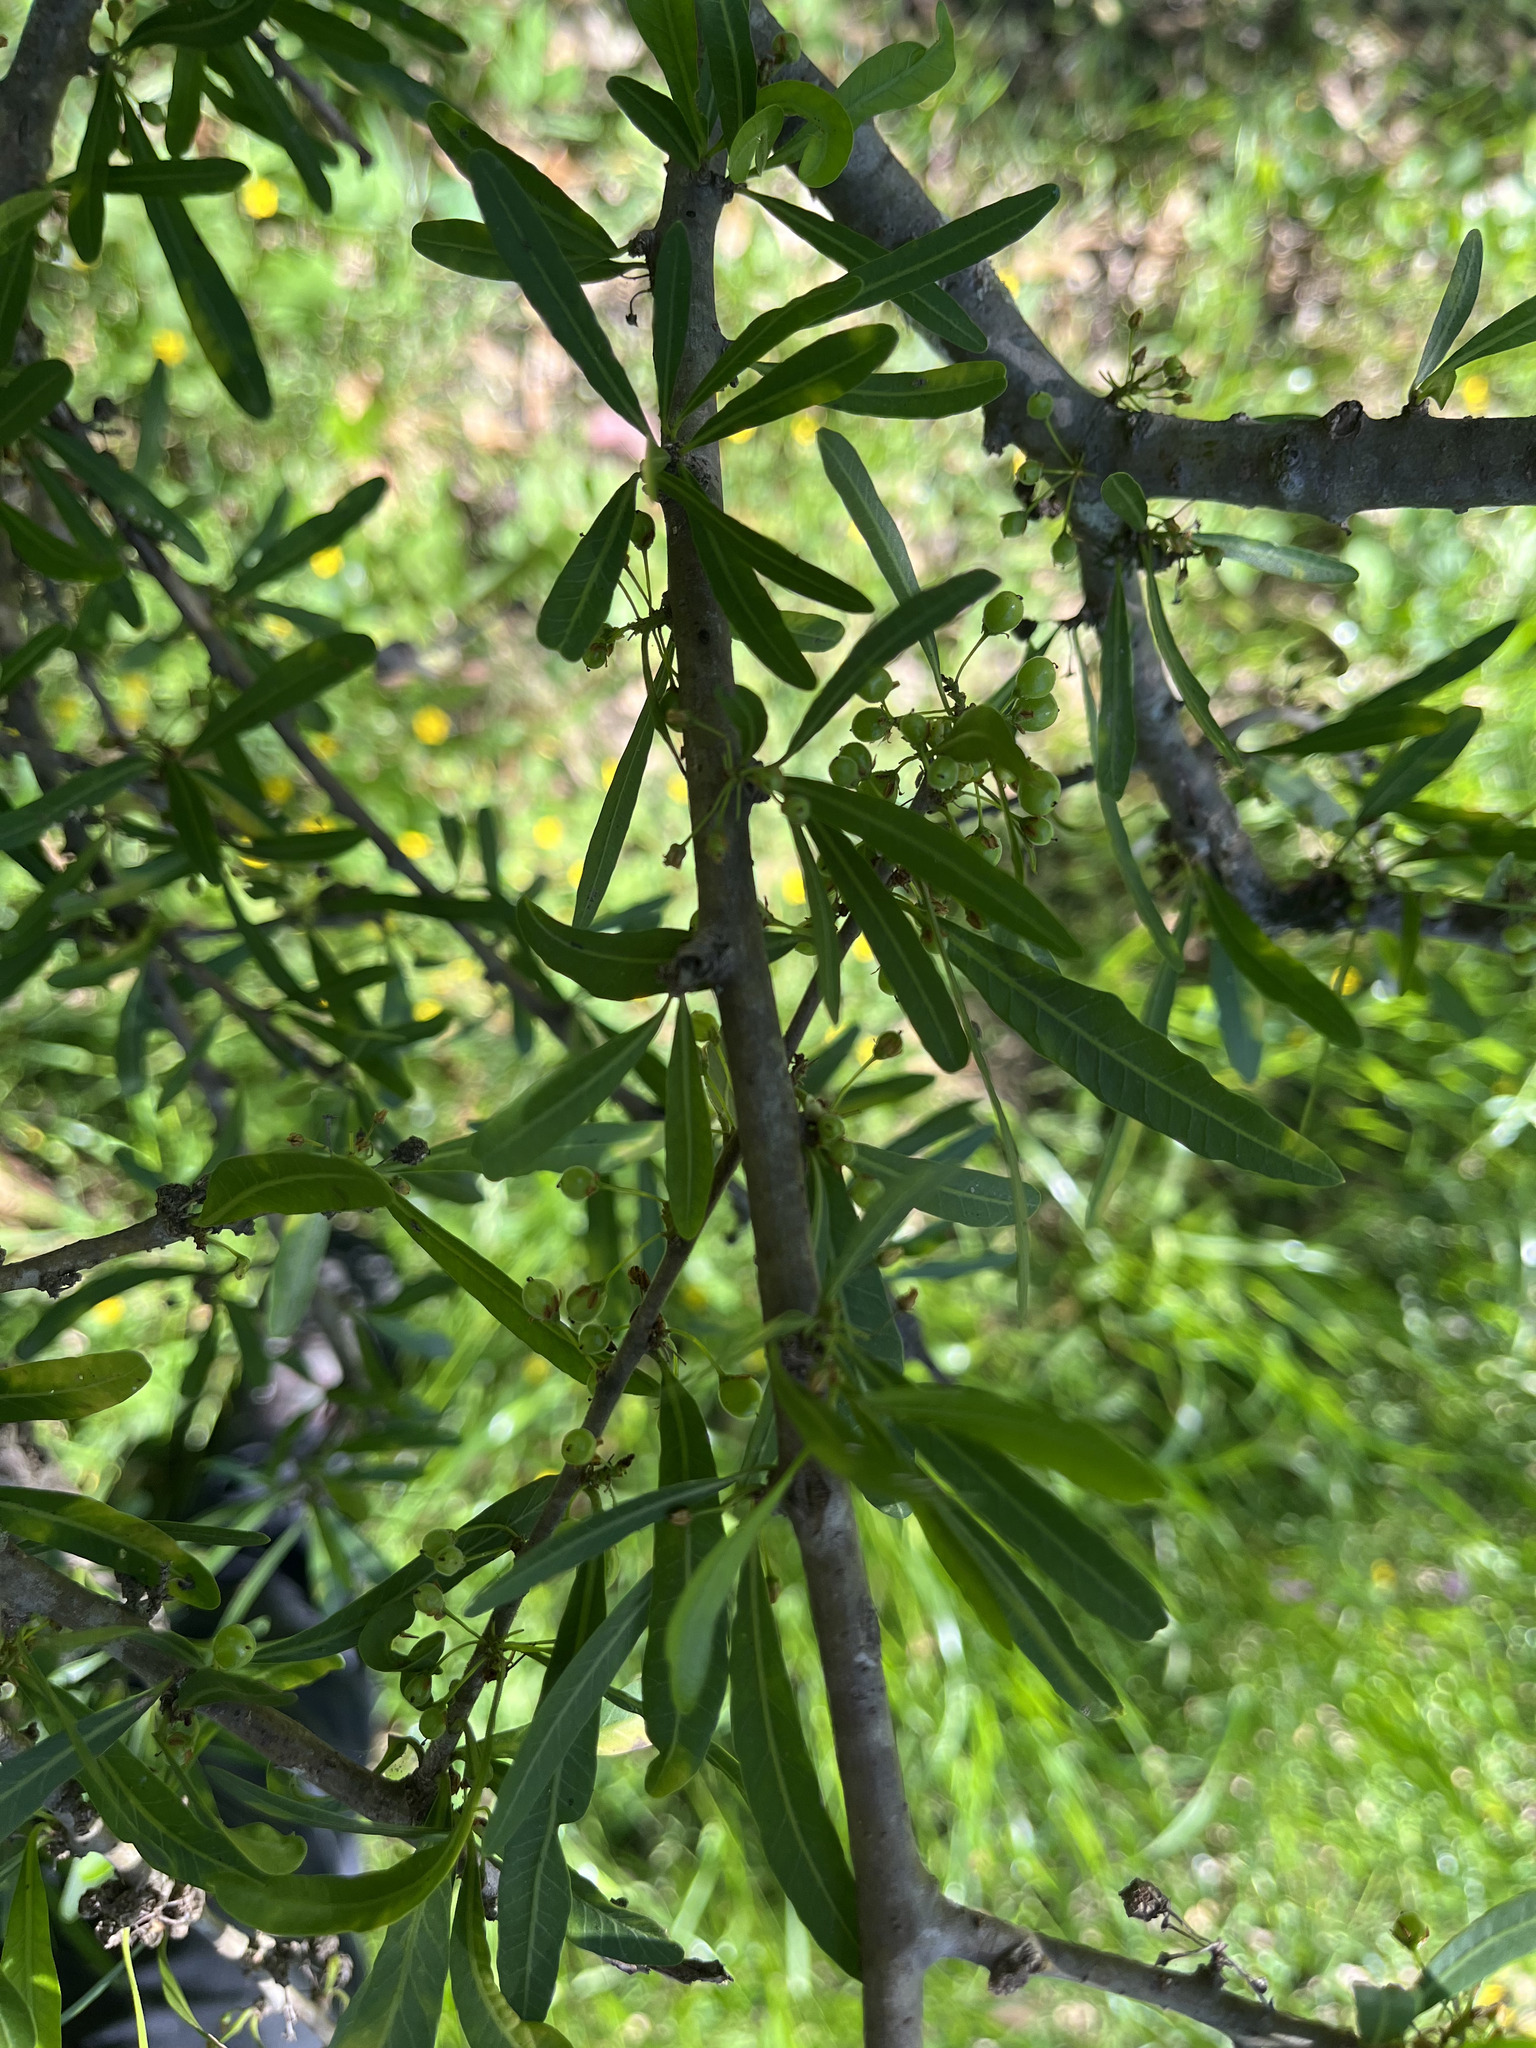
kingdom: Plantae
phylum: Tracheophyta
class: Magnoliopsida
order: Sapindales
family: Anacardiaceae
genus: Schinus
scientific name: Schinus longifolia
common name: Longleaf peppertree
